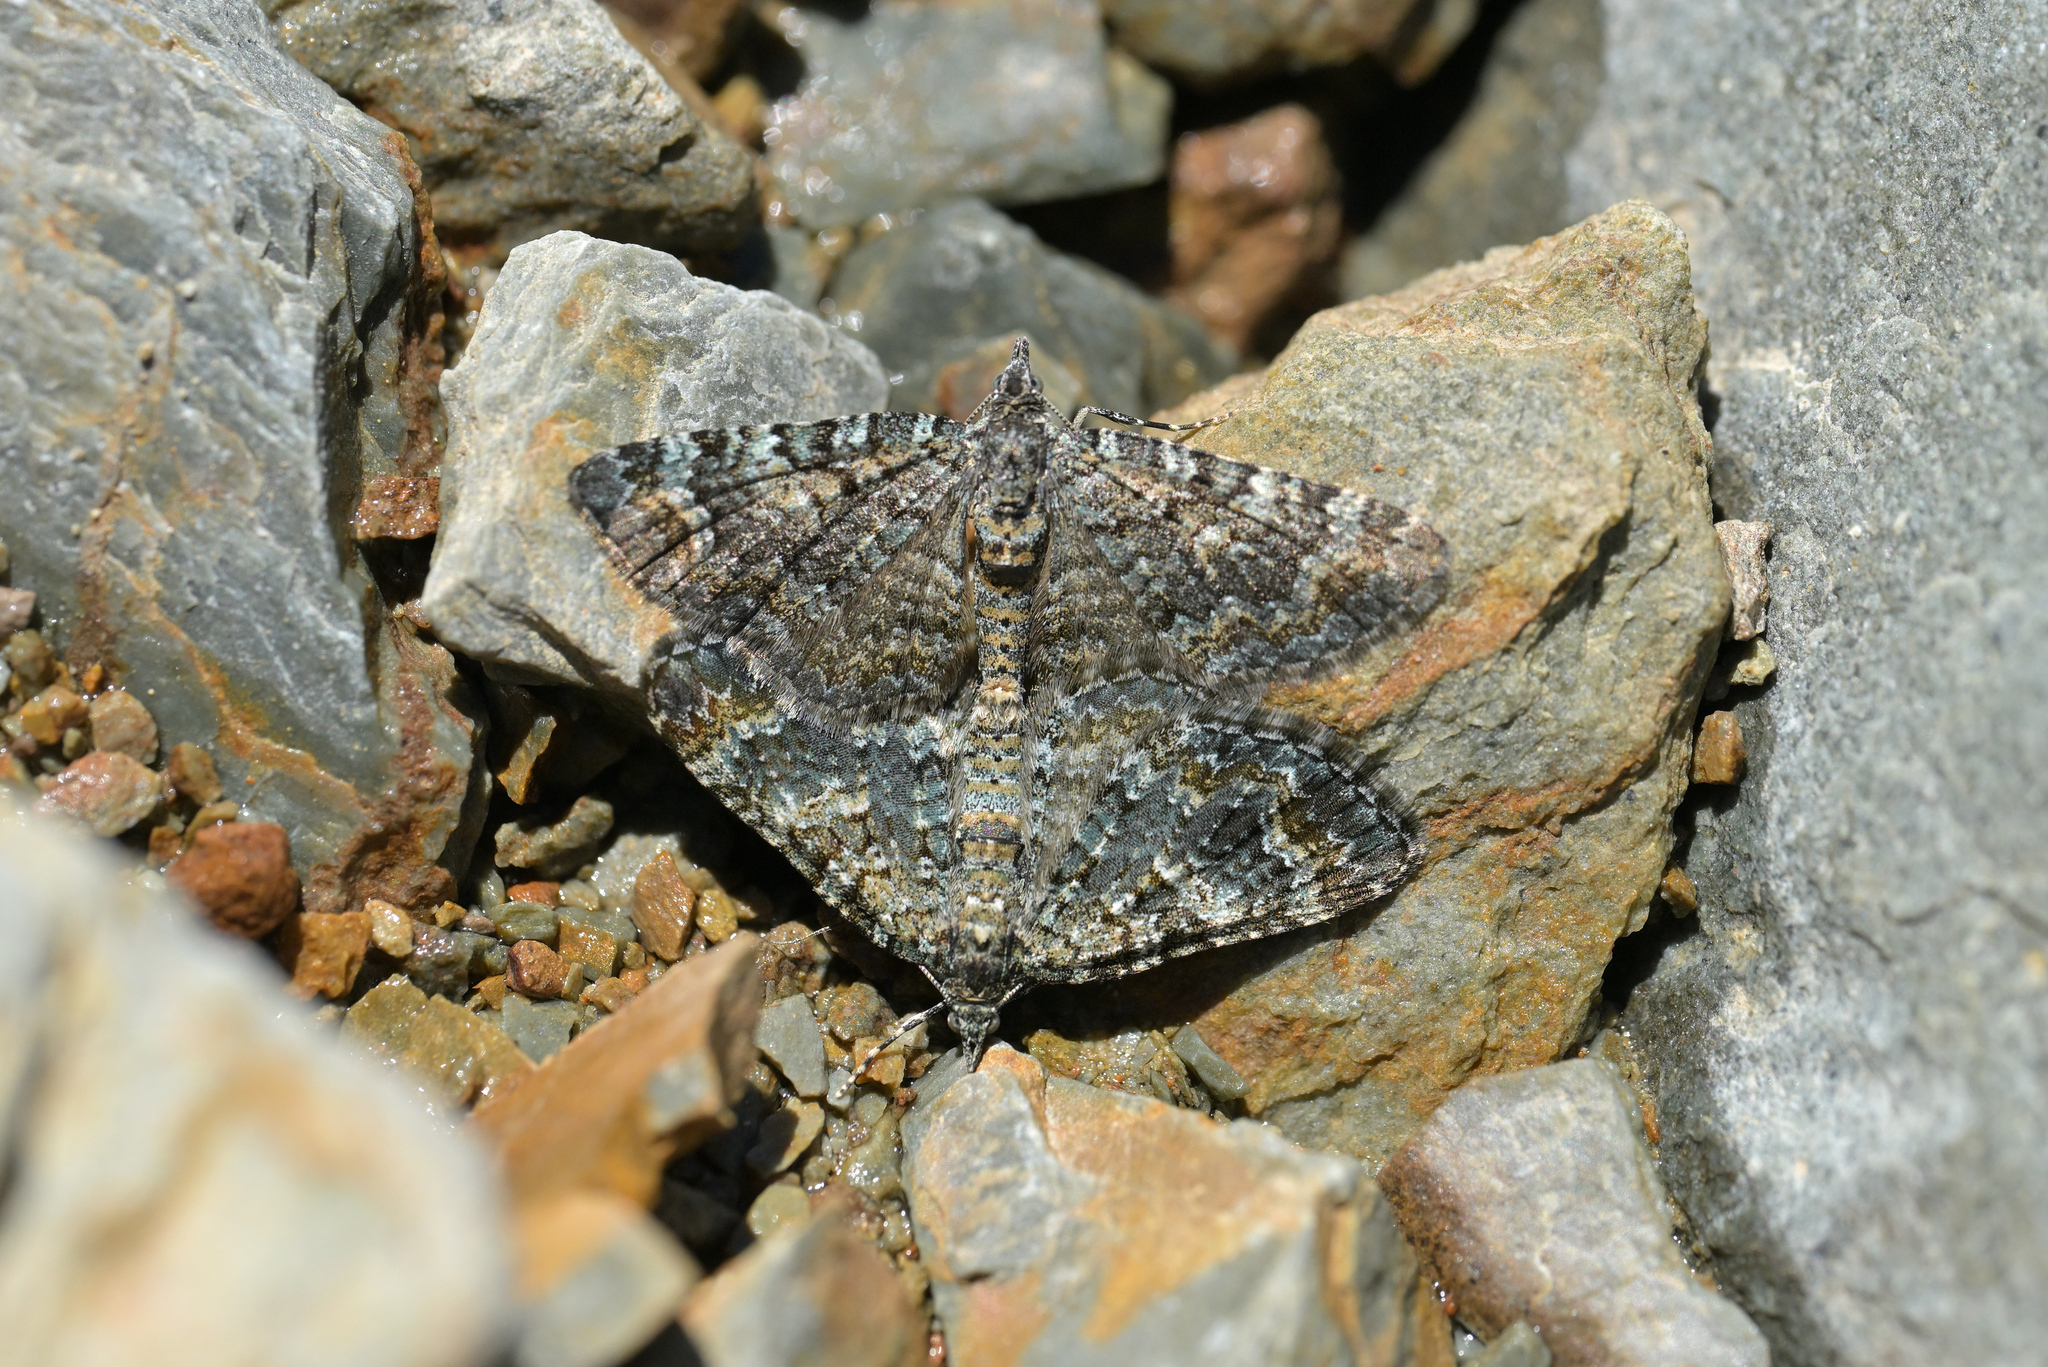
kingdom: Animalia
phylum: Arthropoda
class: Insecta
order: Lepidoptera
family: Geometridae
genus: Chloroclystis
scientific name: Chloroclystis nereis
